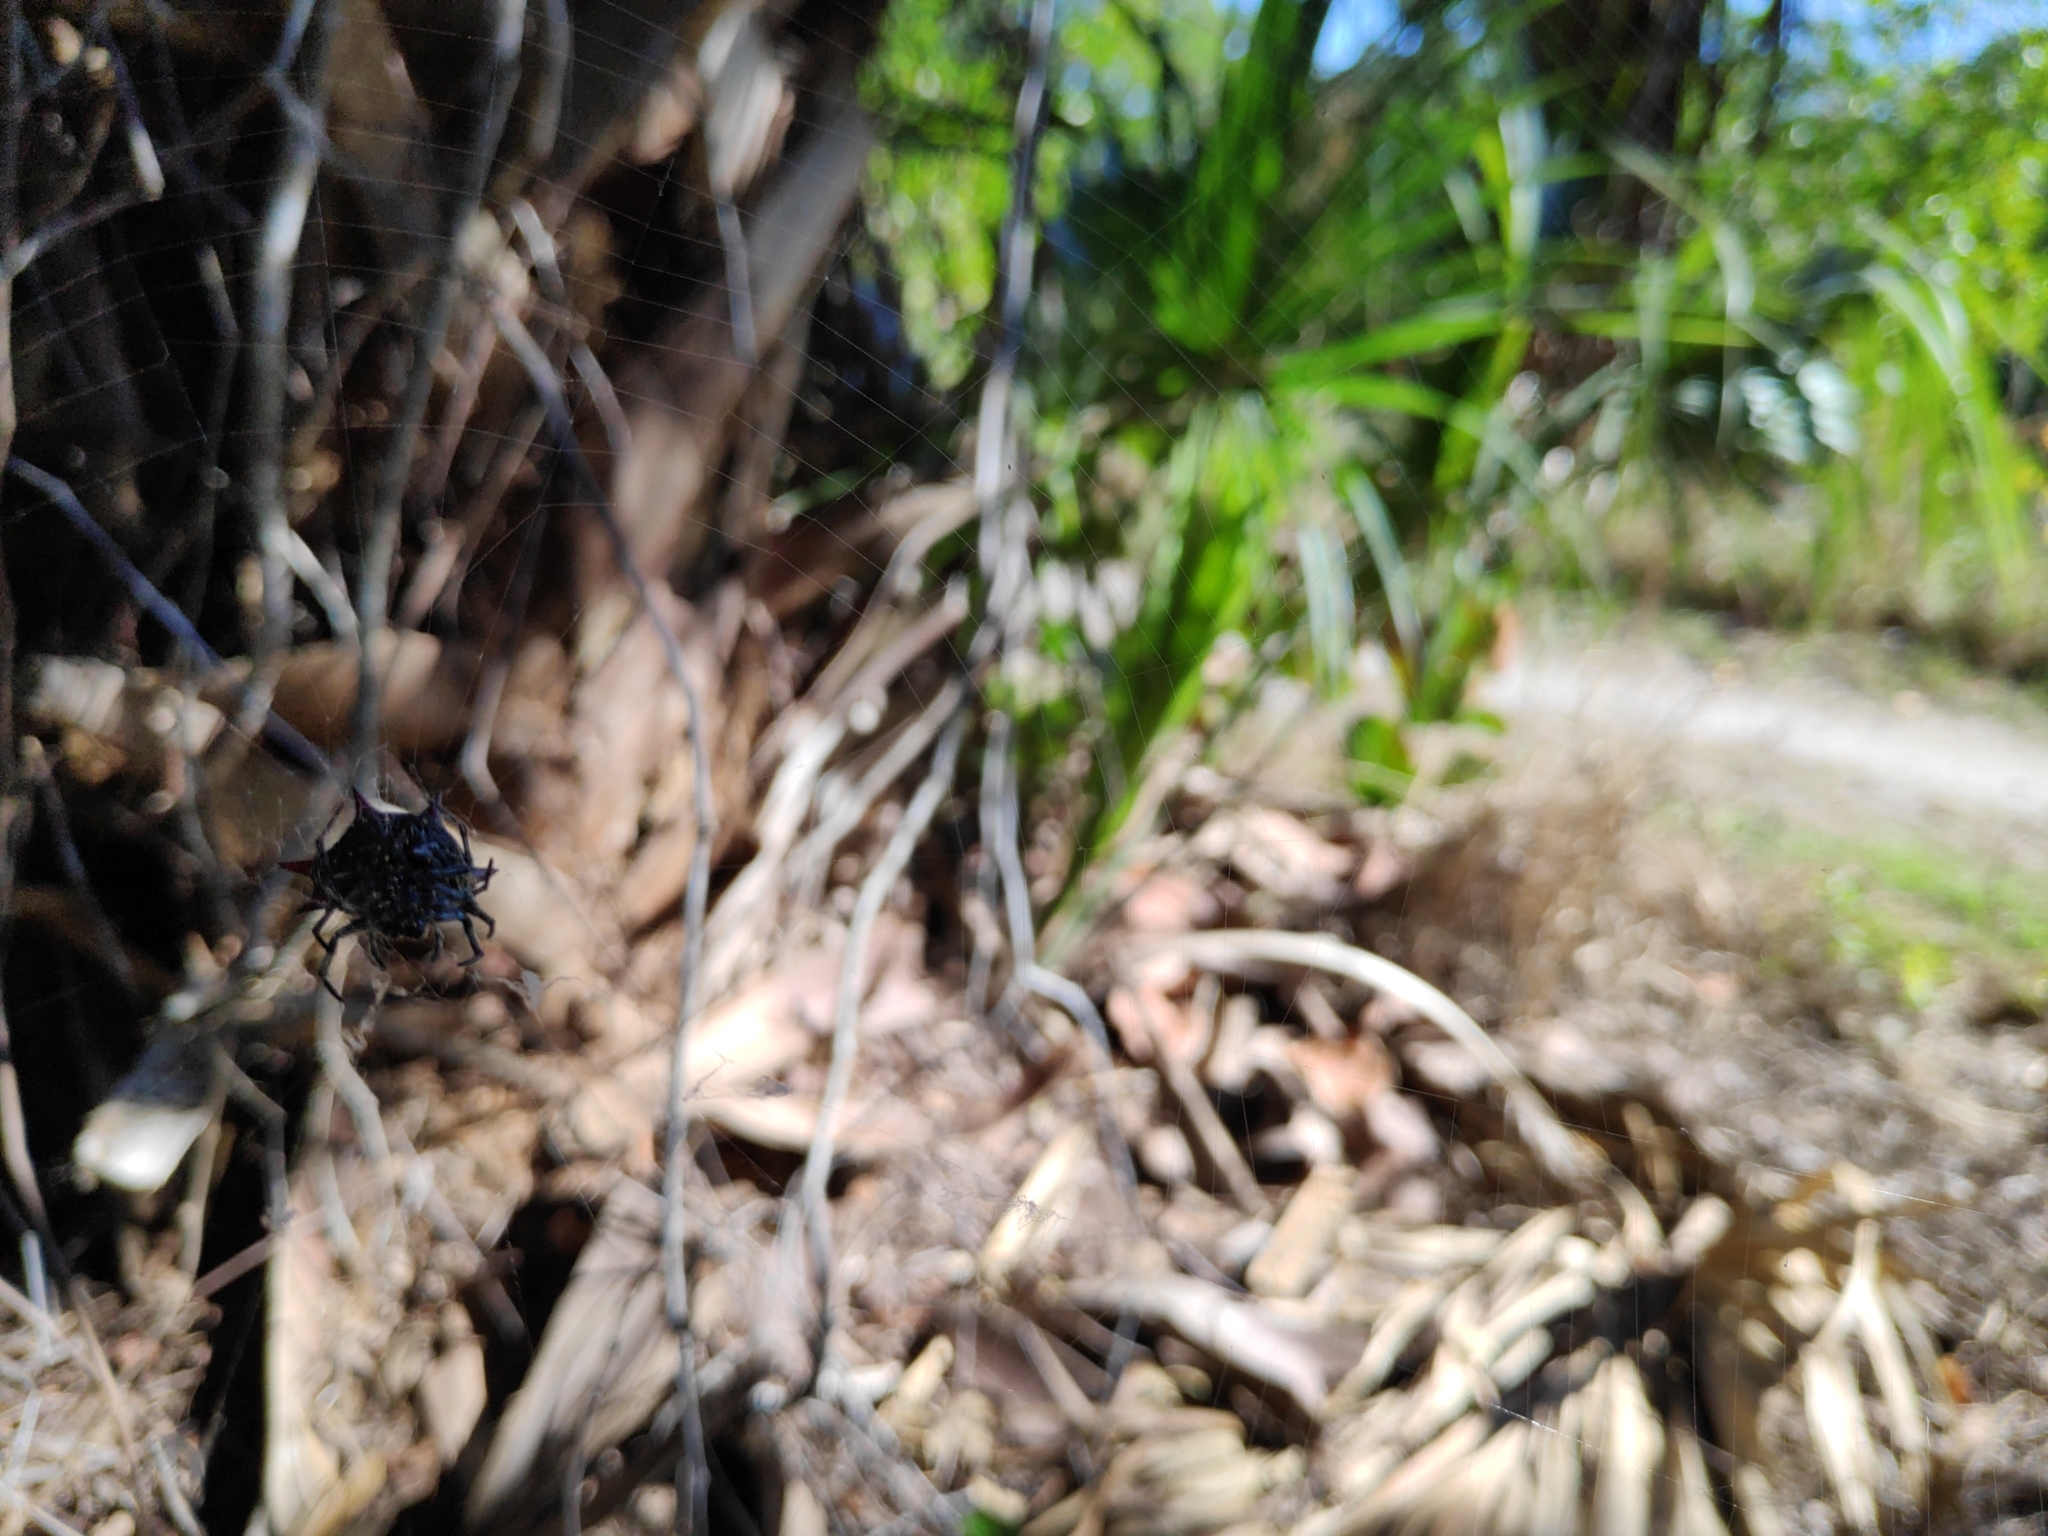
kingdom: Animalia
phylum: Arthropoda
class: Arachnida
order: Araneae
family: Araneidae
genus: Gasteracantha
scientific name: Gasteracantha cancriformis
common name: Orb weavers
